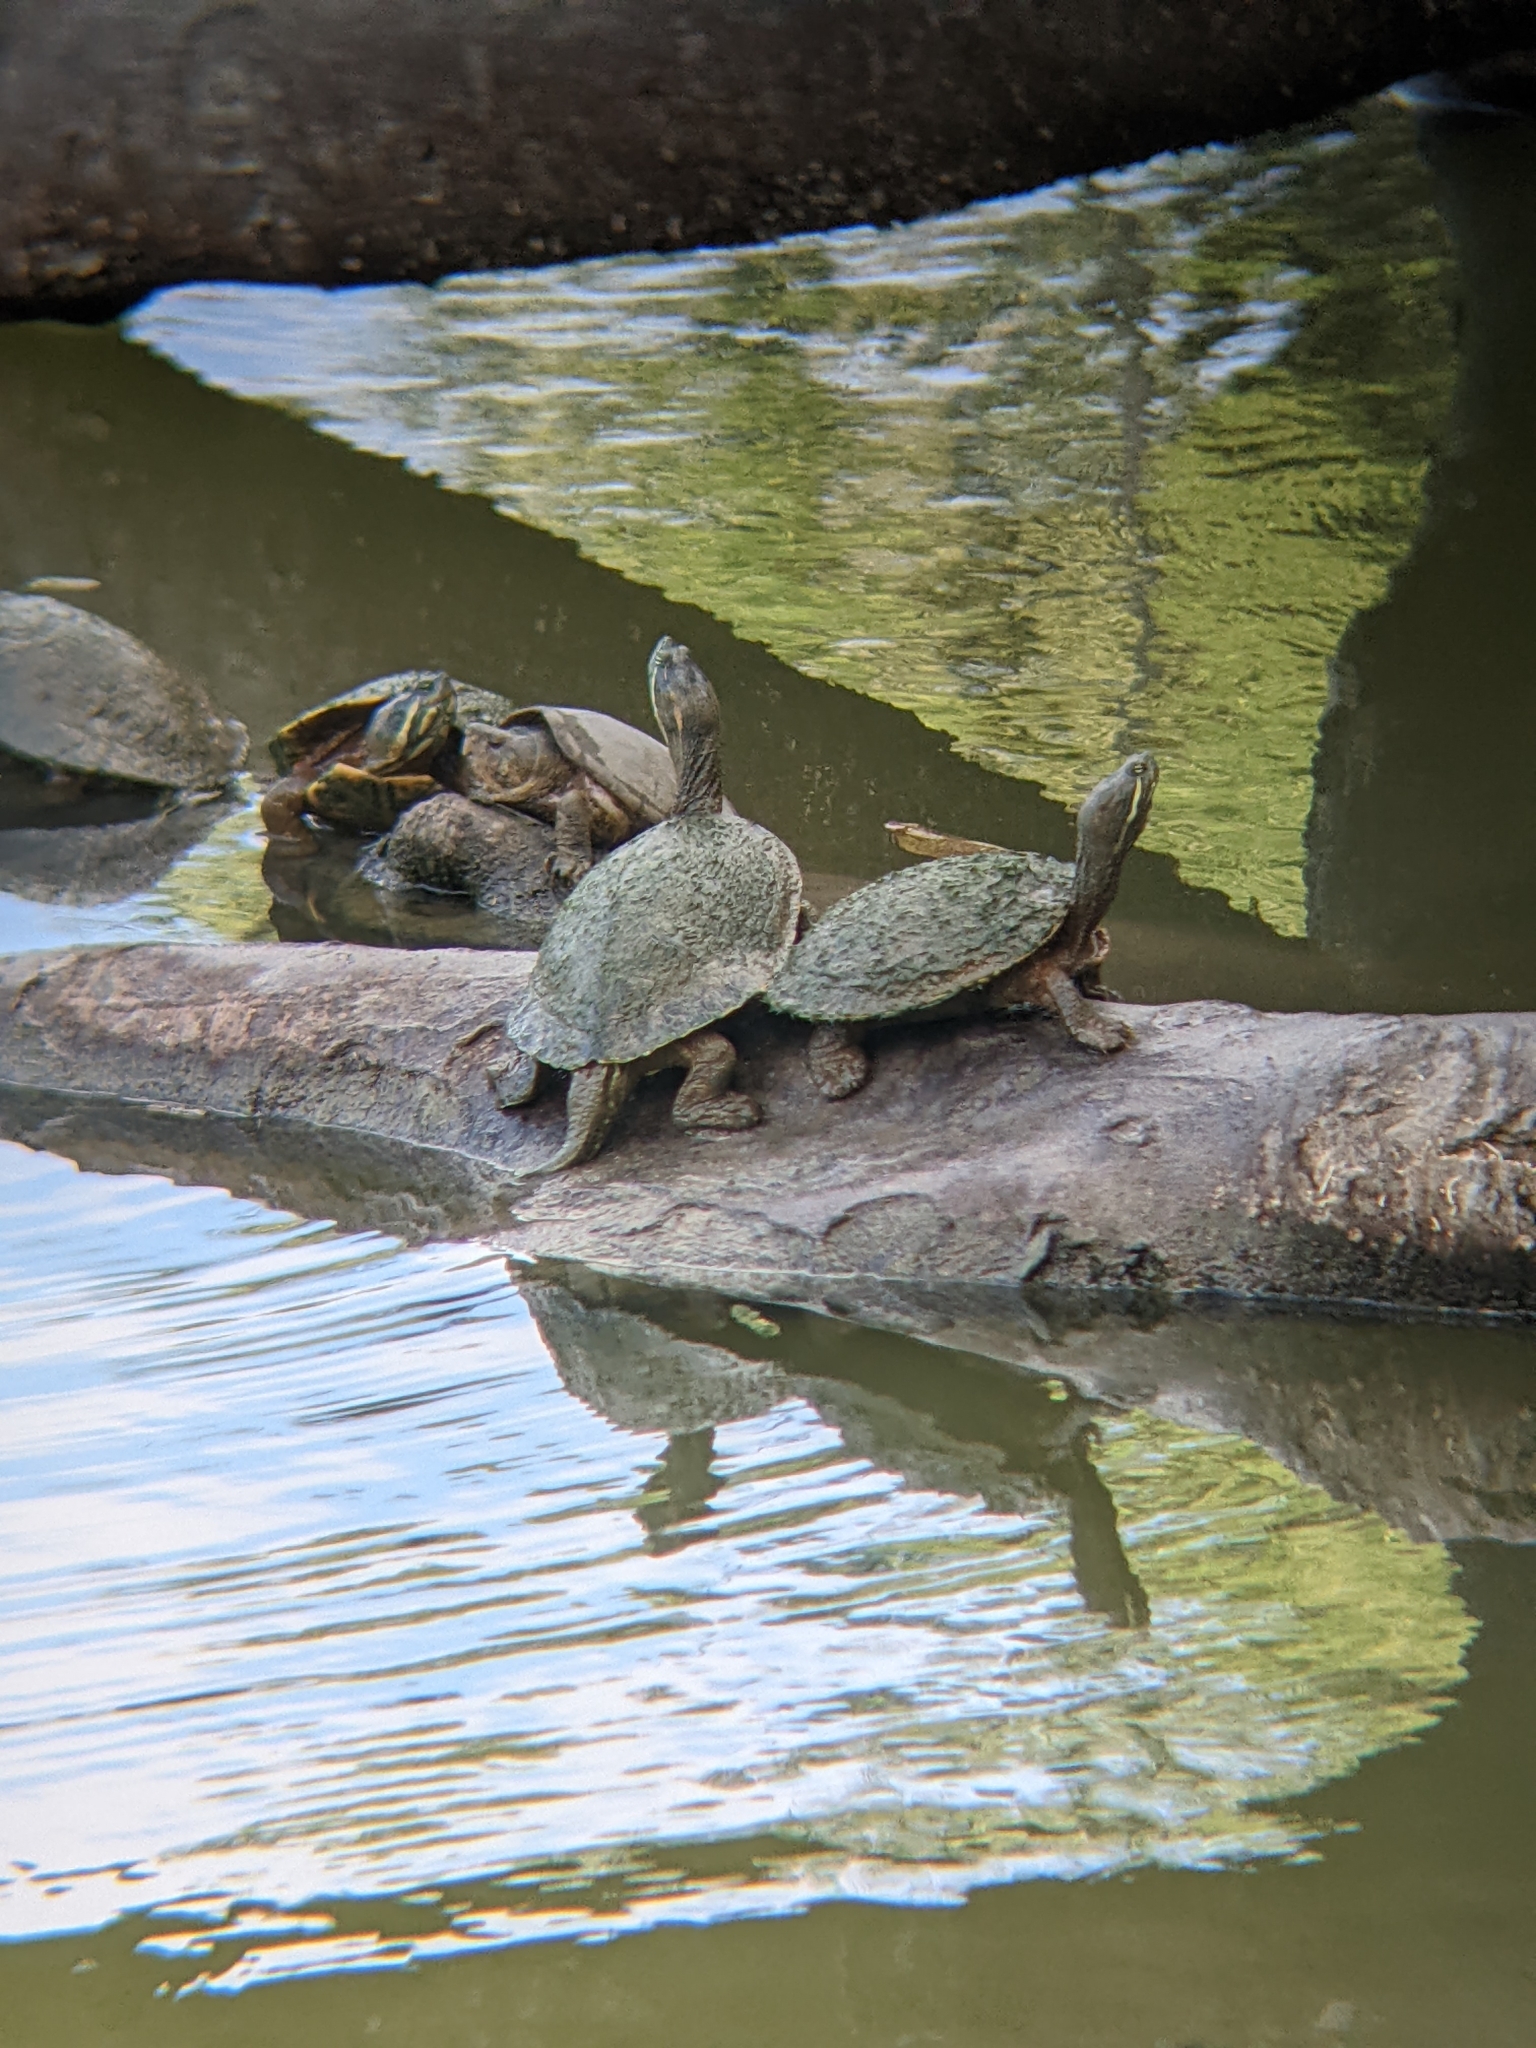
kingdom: Animalia
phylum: Chordata
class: Testudines
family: Emydidae
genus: Trachemys
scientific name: Trachemys venusta
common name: Mesoamerican slider
